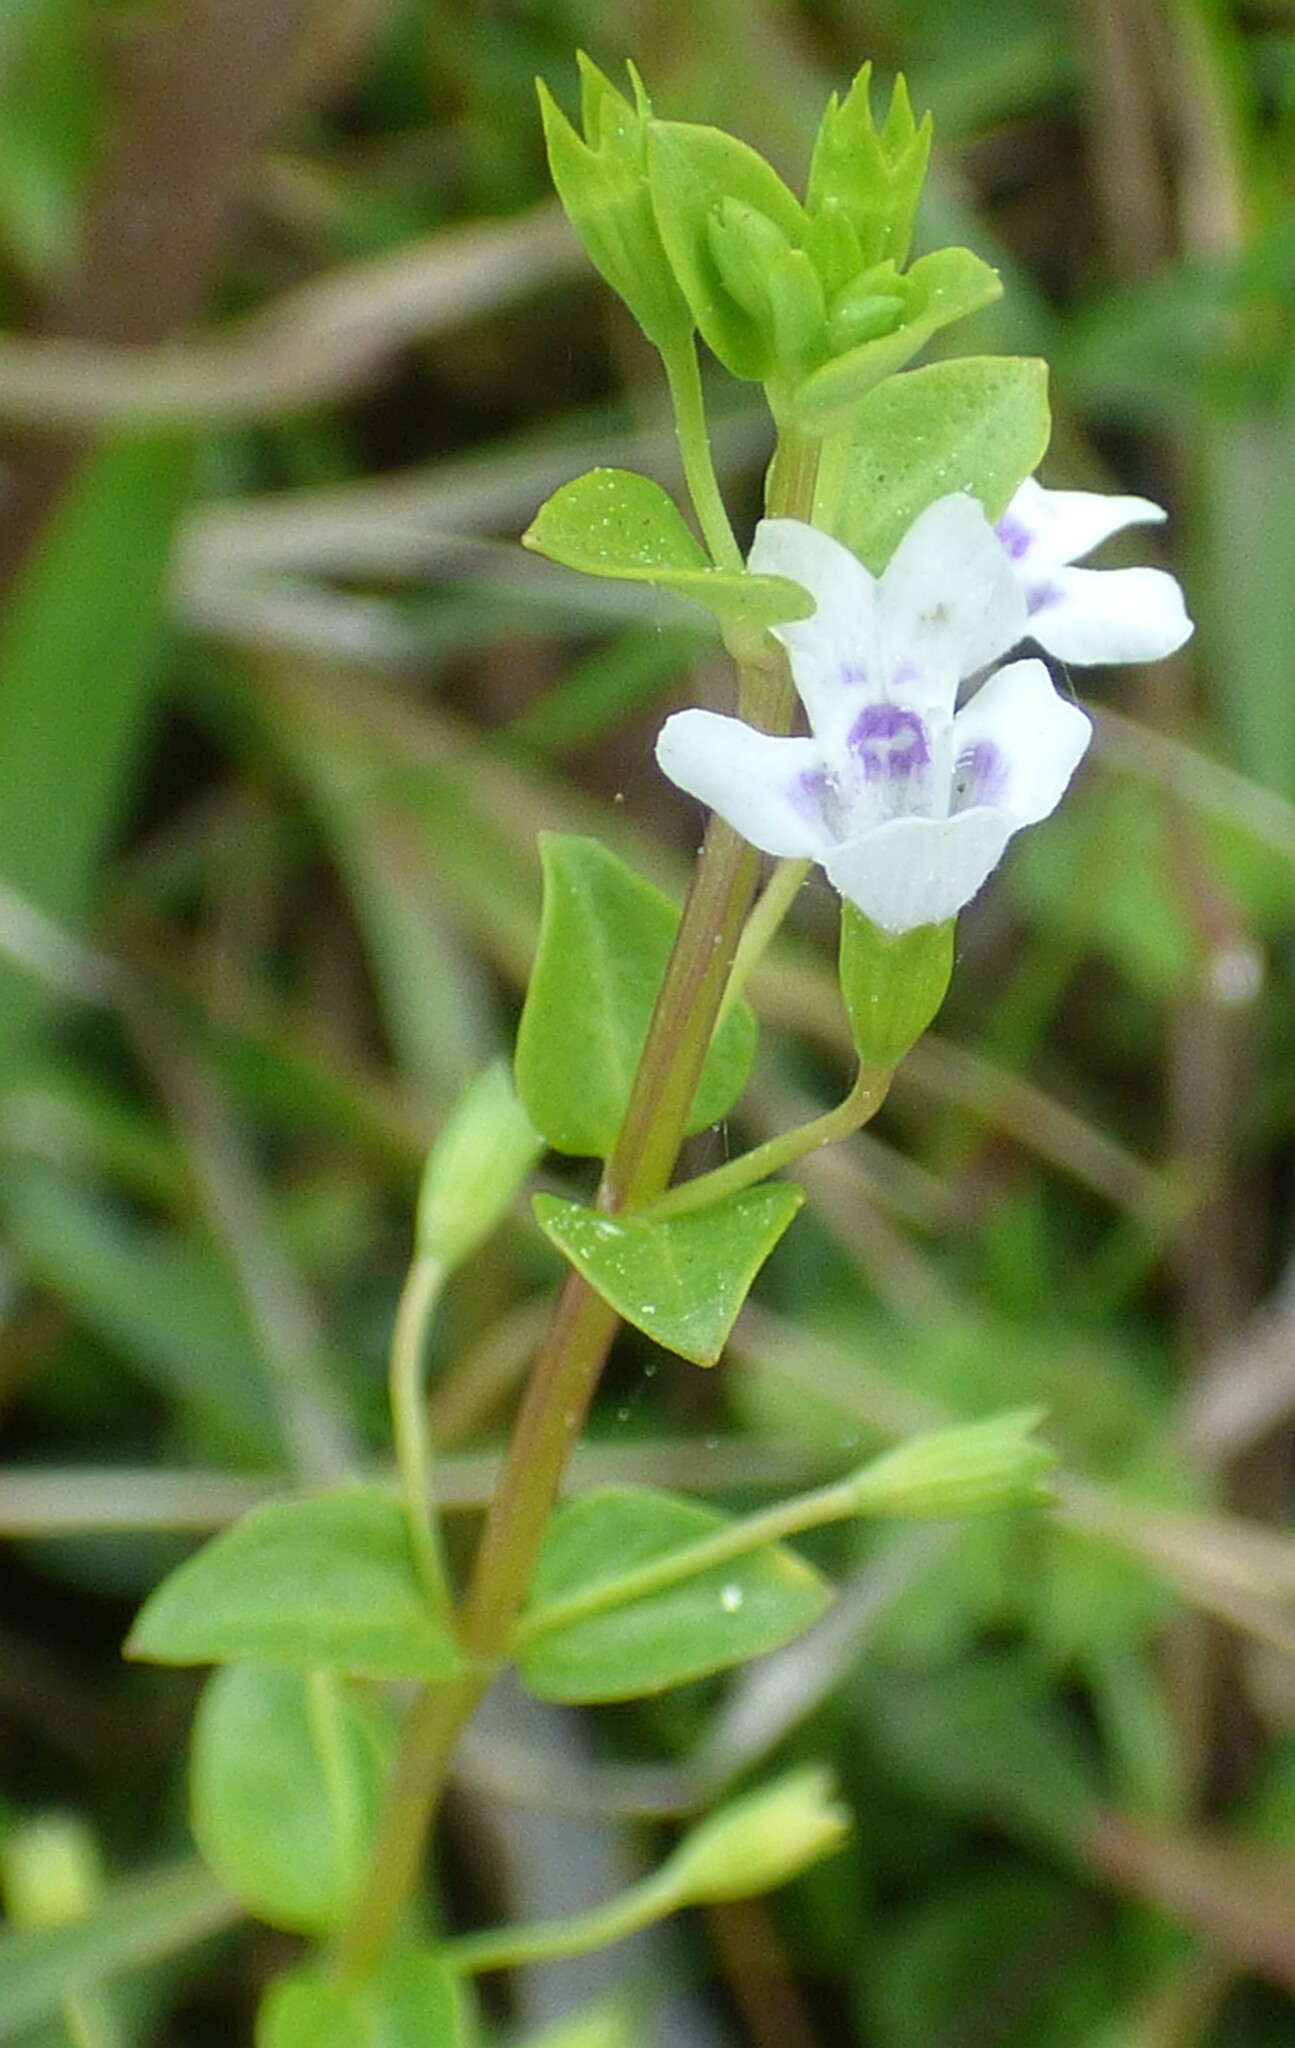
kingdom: Plantae
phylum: Tracheophyta
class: Magnoliopsida
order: Lamiales
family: Lamiaceae
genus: Clinopodium
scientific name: Clinopodium brownei
